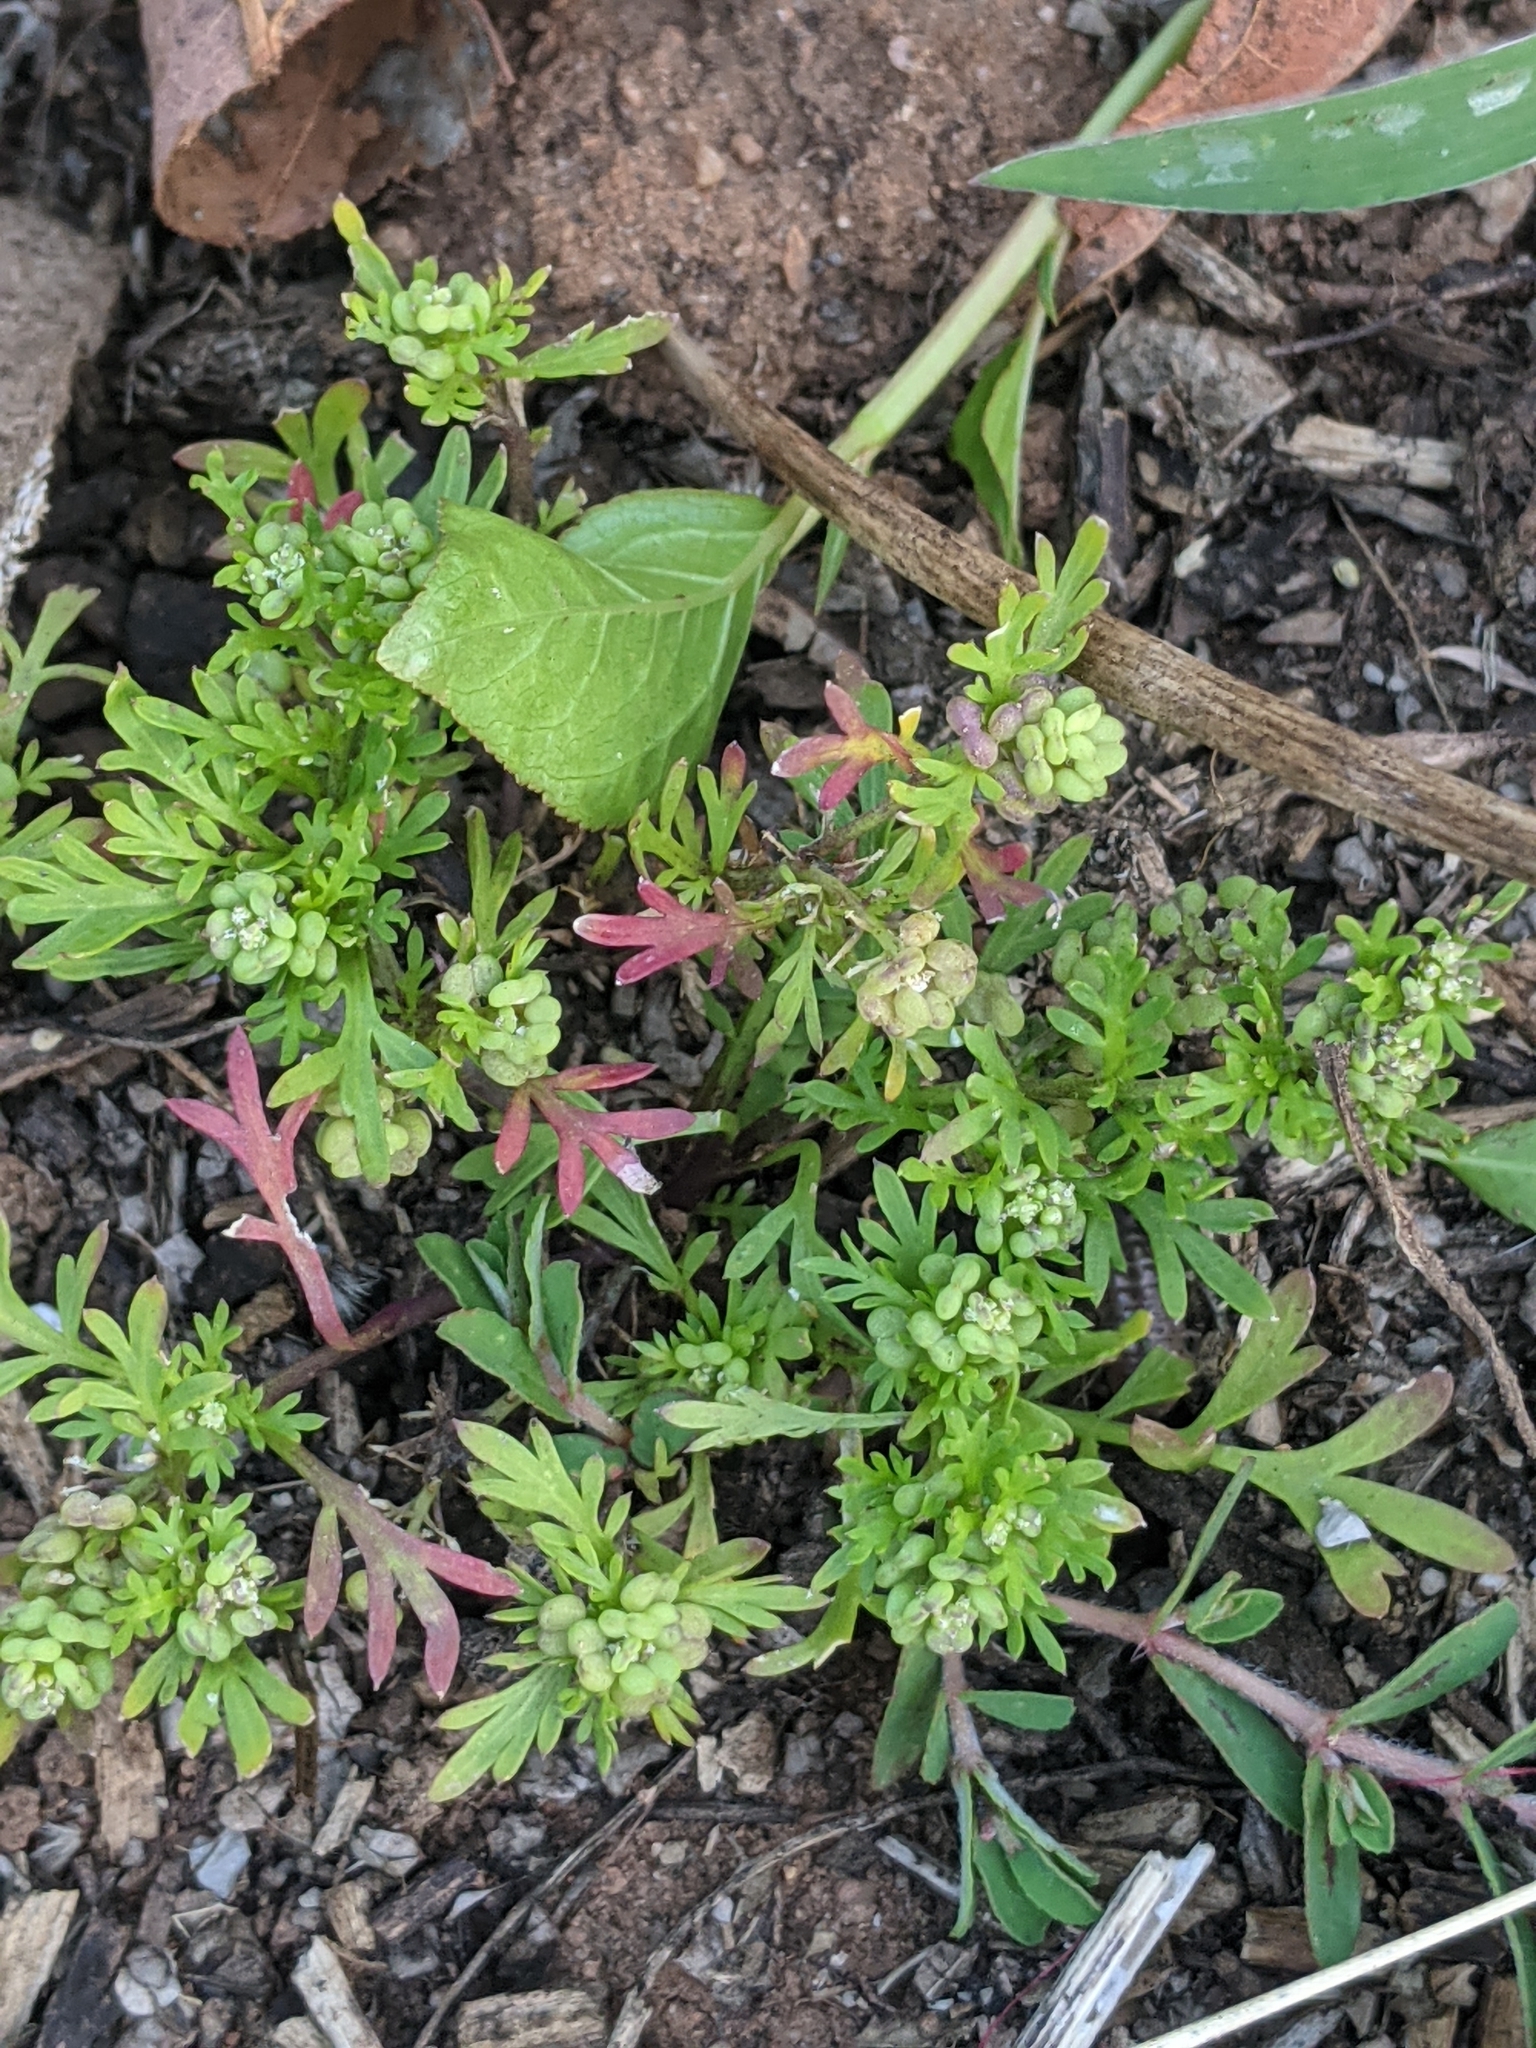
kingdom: Plantae
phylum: Tracheophyta
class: Magnoliopsida
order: Brassicales
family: Brassicaceae
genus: Lepidium
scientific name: Lepidium didymum
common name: Lesser swinecress
